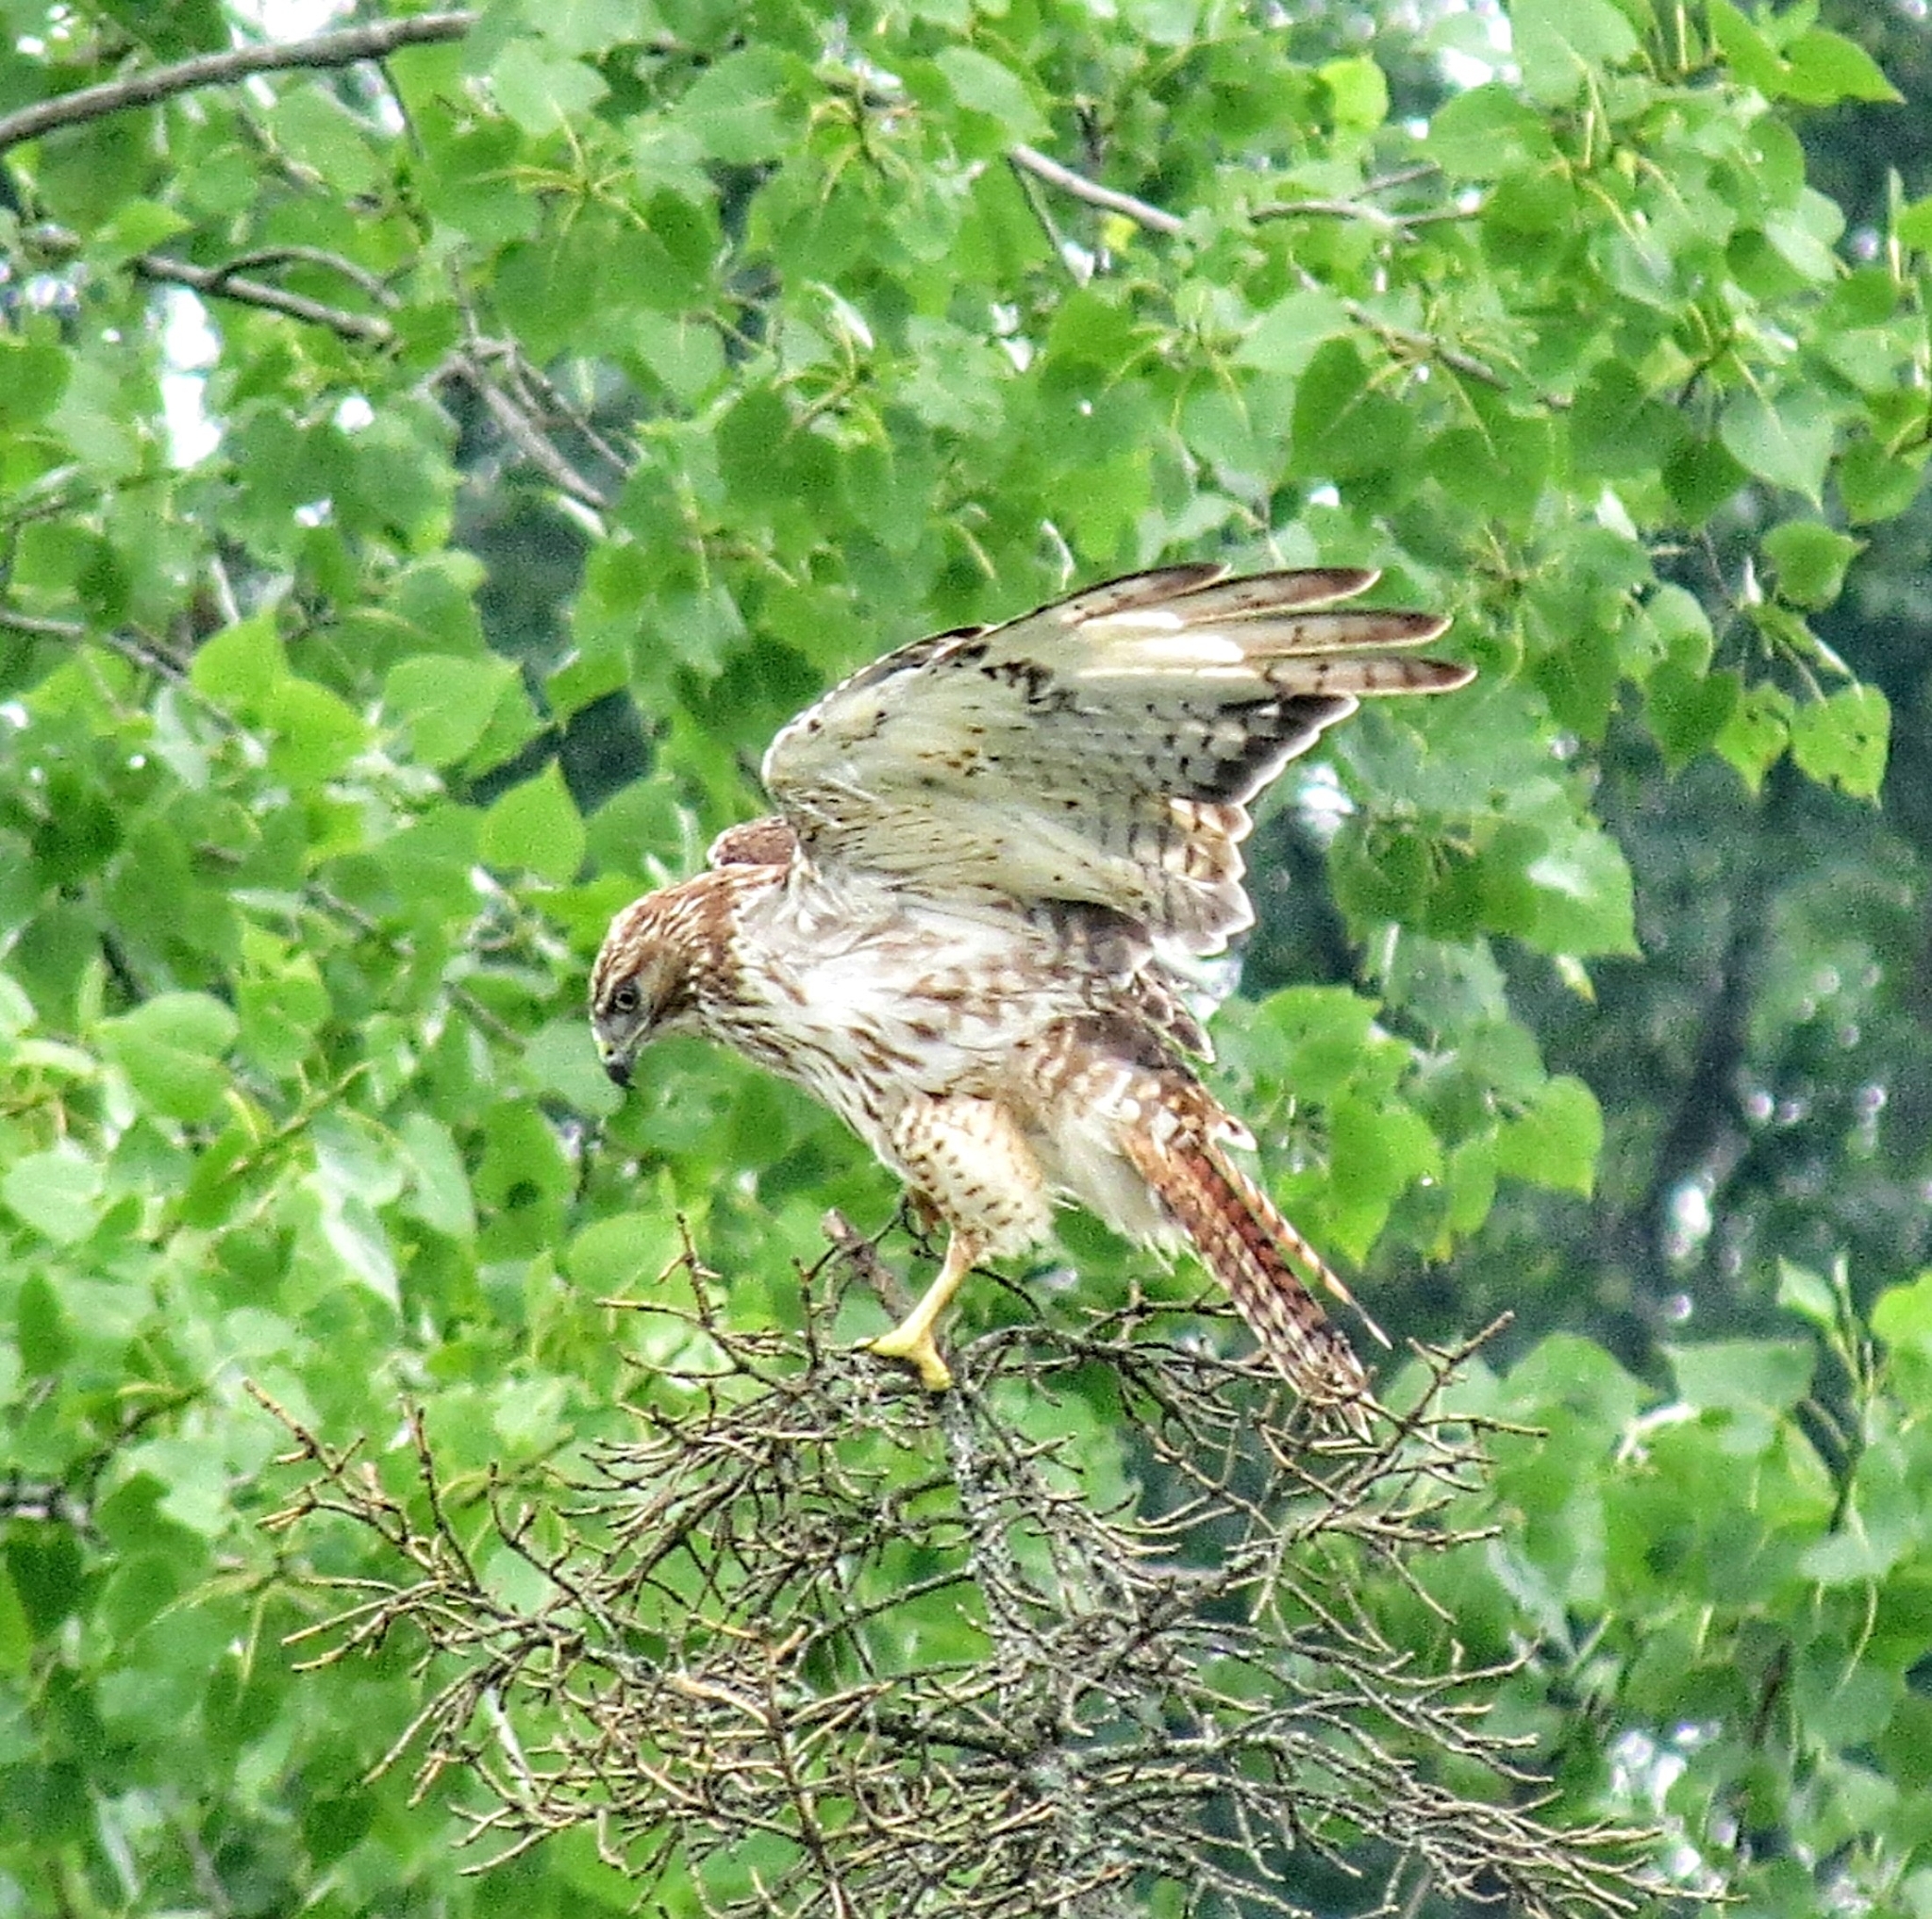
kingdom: Animalia
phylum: Chordata
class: Aves
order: Accipitriformes
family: Accipitridae
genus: Buteo
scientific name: Buteo jamaicensis
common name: Red-tailed hawk
